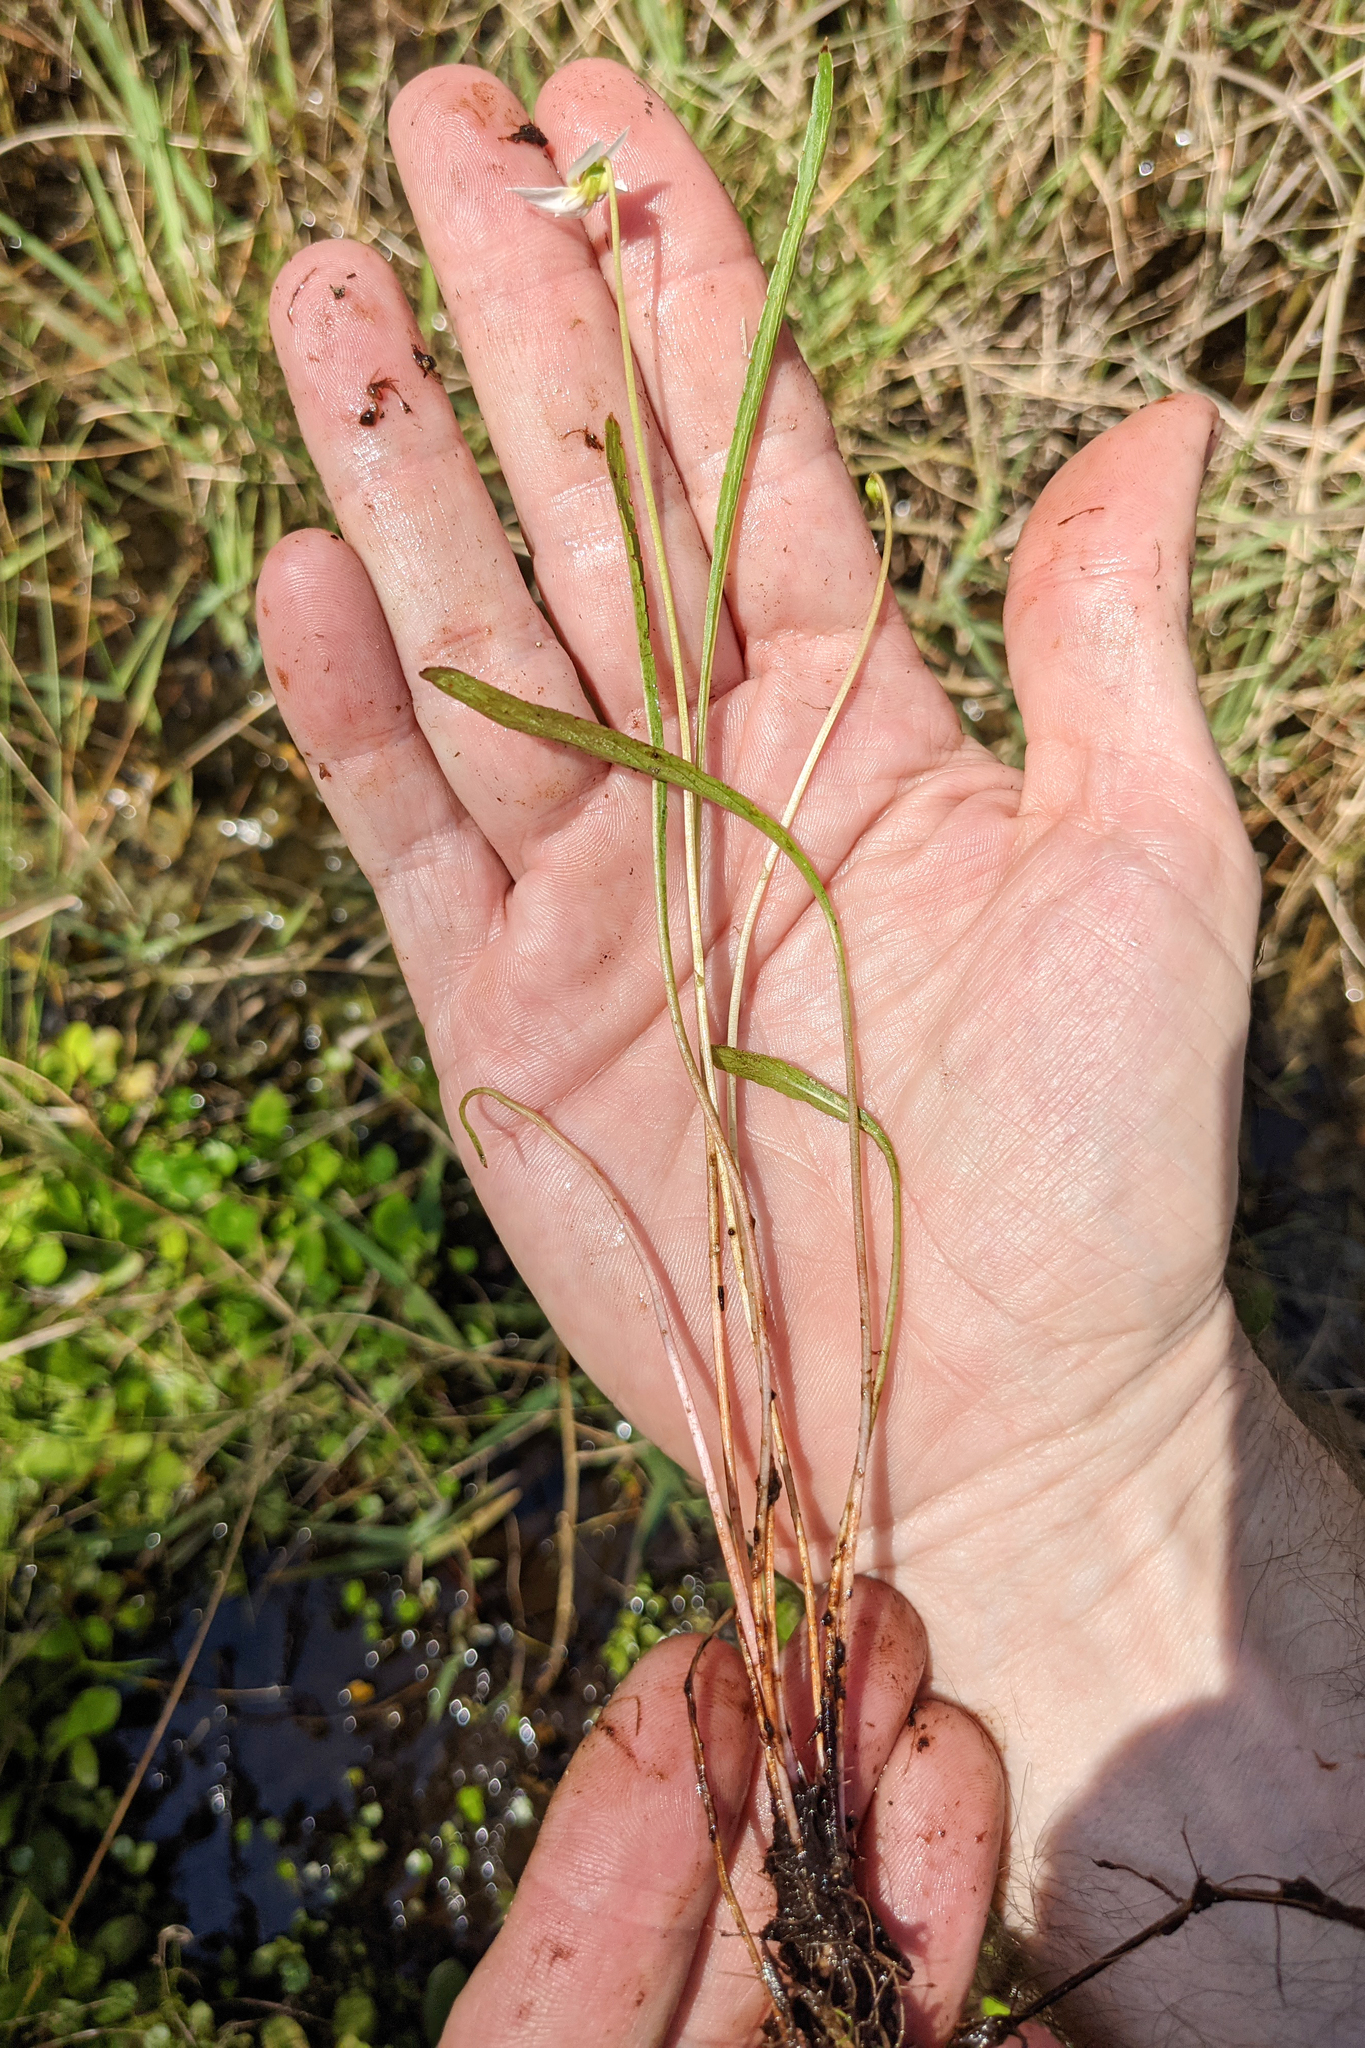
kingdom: Plantae
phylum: Tracheophyta
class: Magnoliopsida
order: Malpighiales
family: Violaceae
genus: Viola
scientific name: Viola vittata
